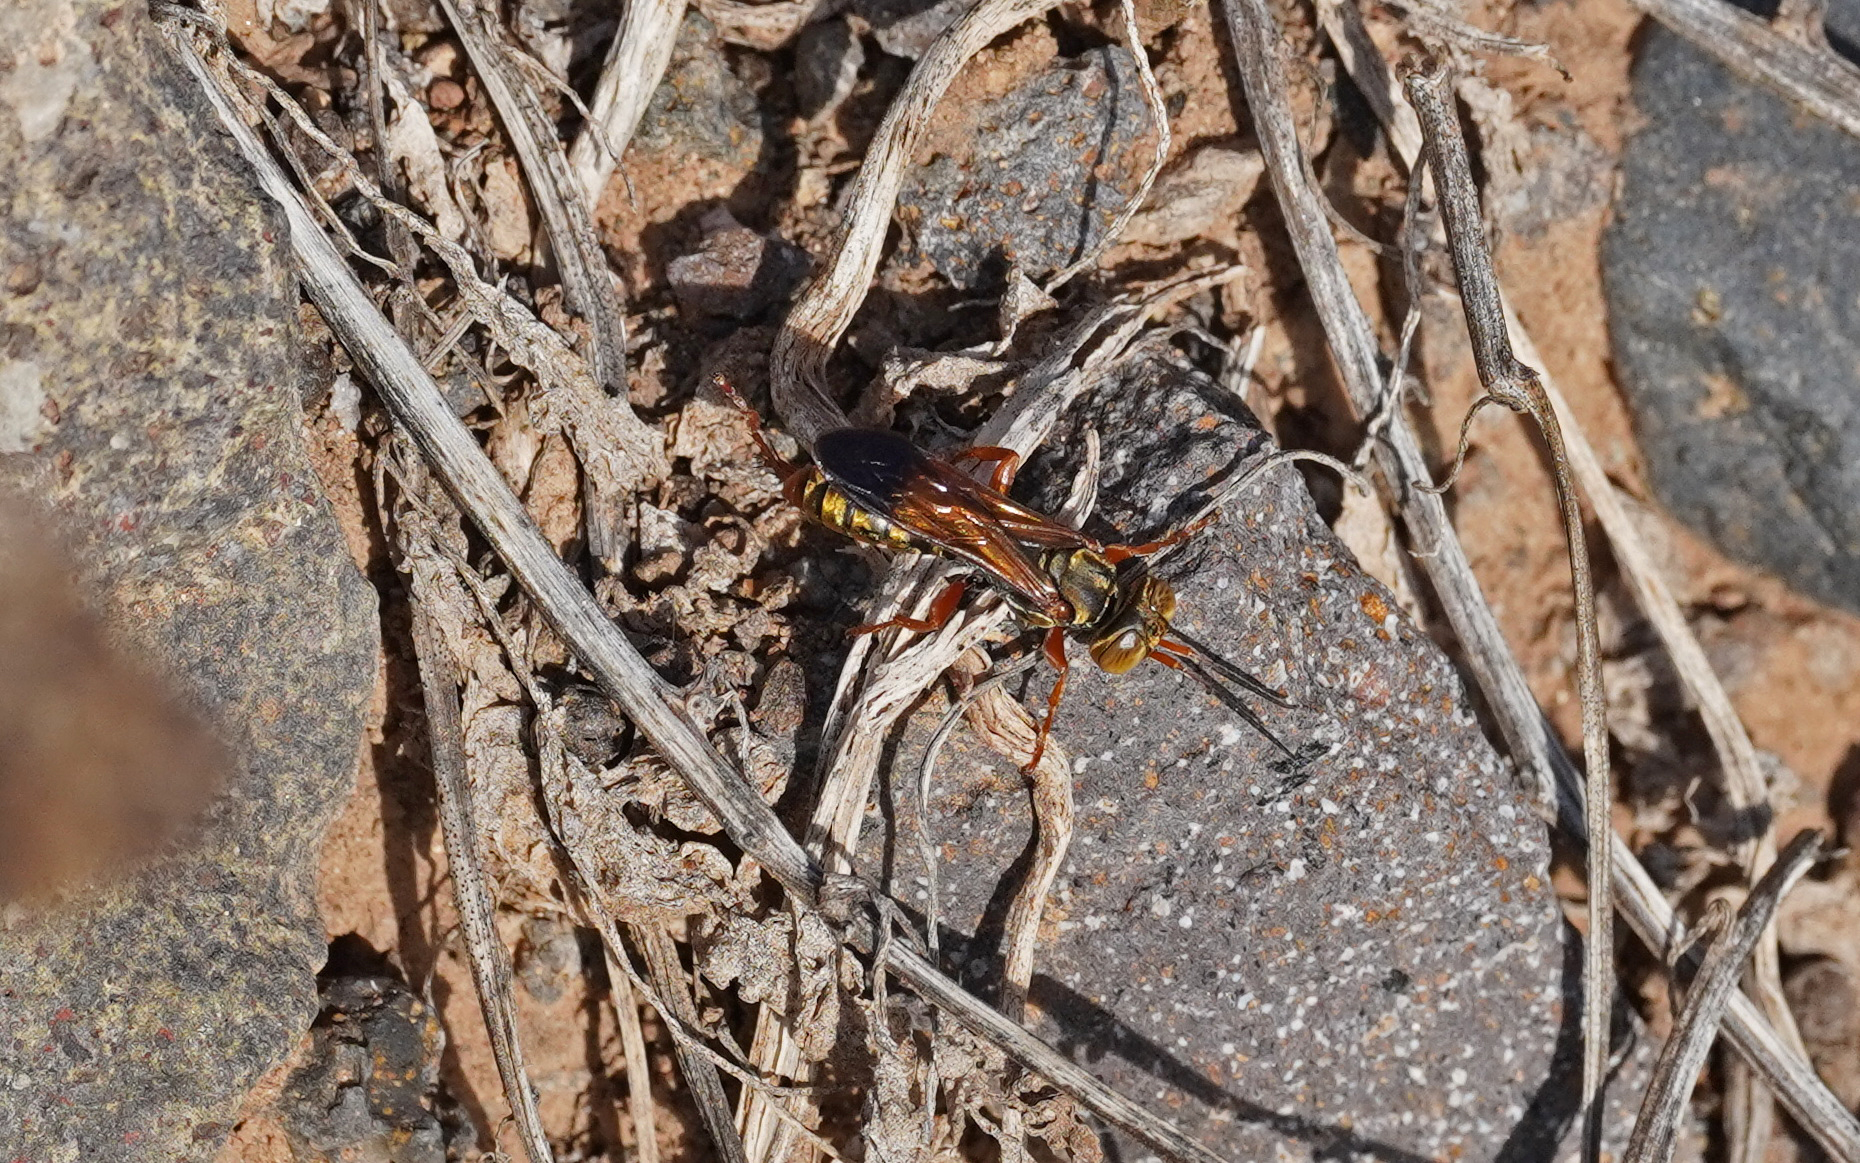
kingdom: Animalia
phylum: Arthropoda
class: Insecta
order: Hymenoptera
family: Crabronidae
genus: Liris
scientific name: Liris haemorrhoidalis
